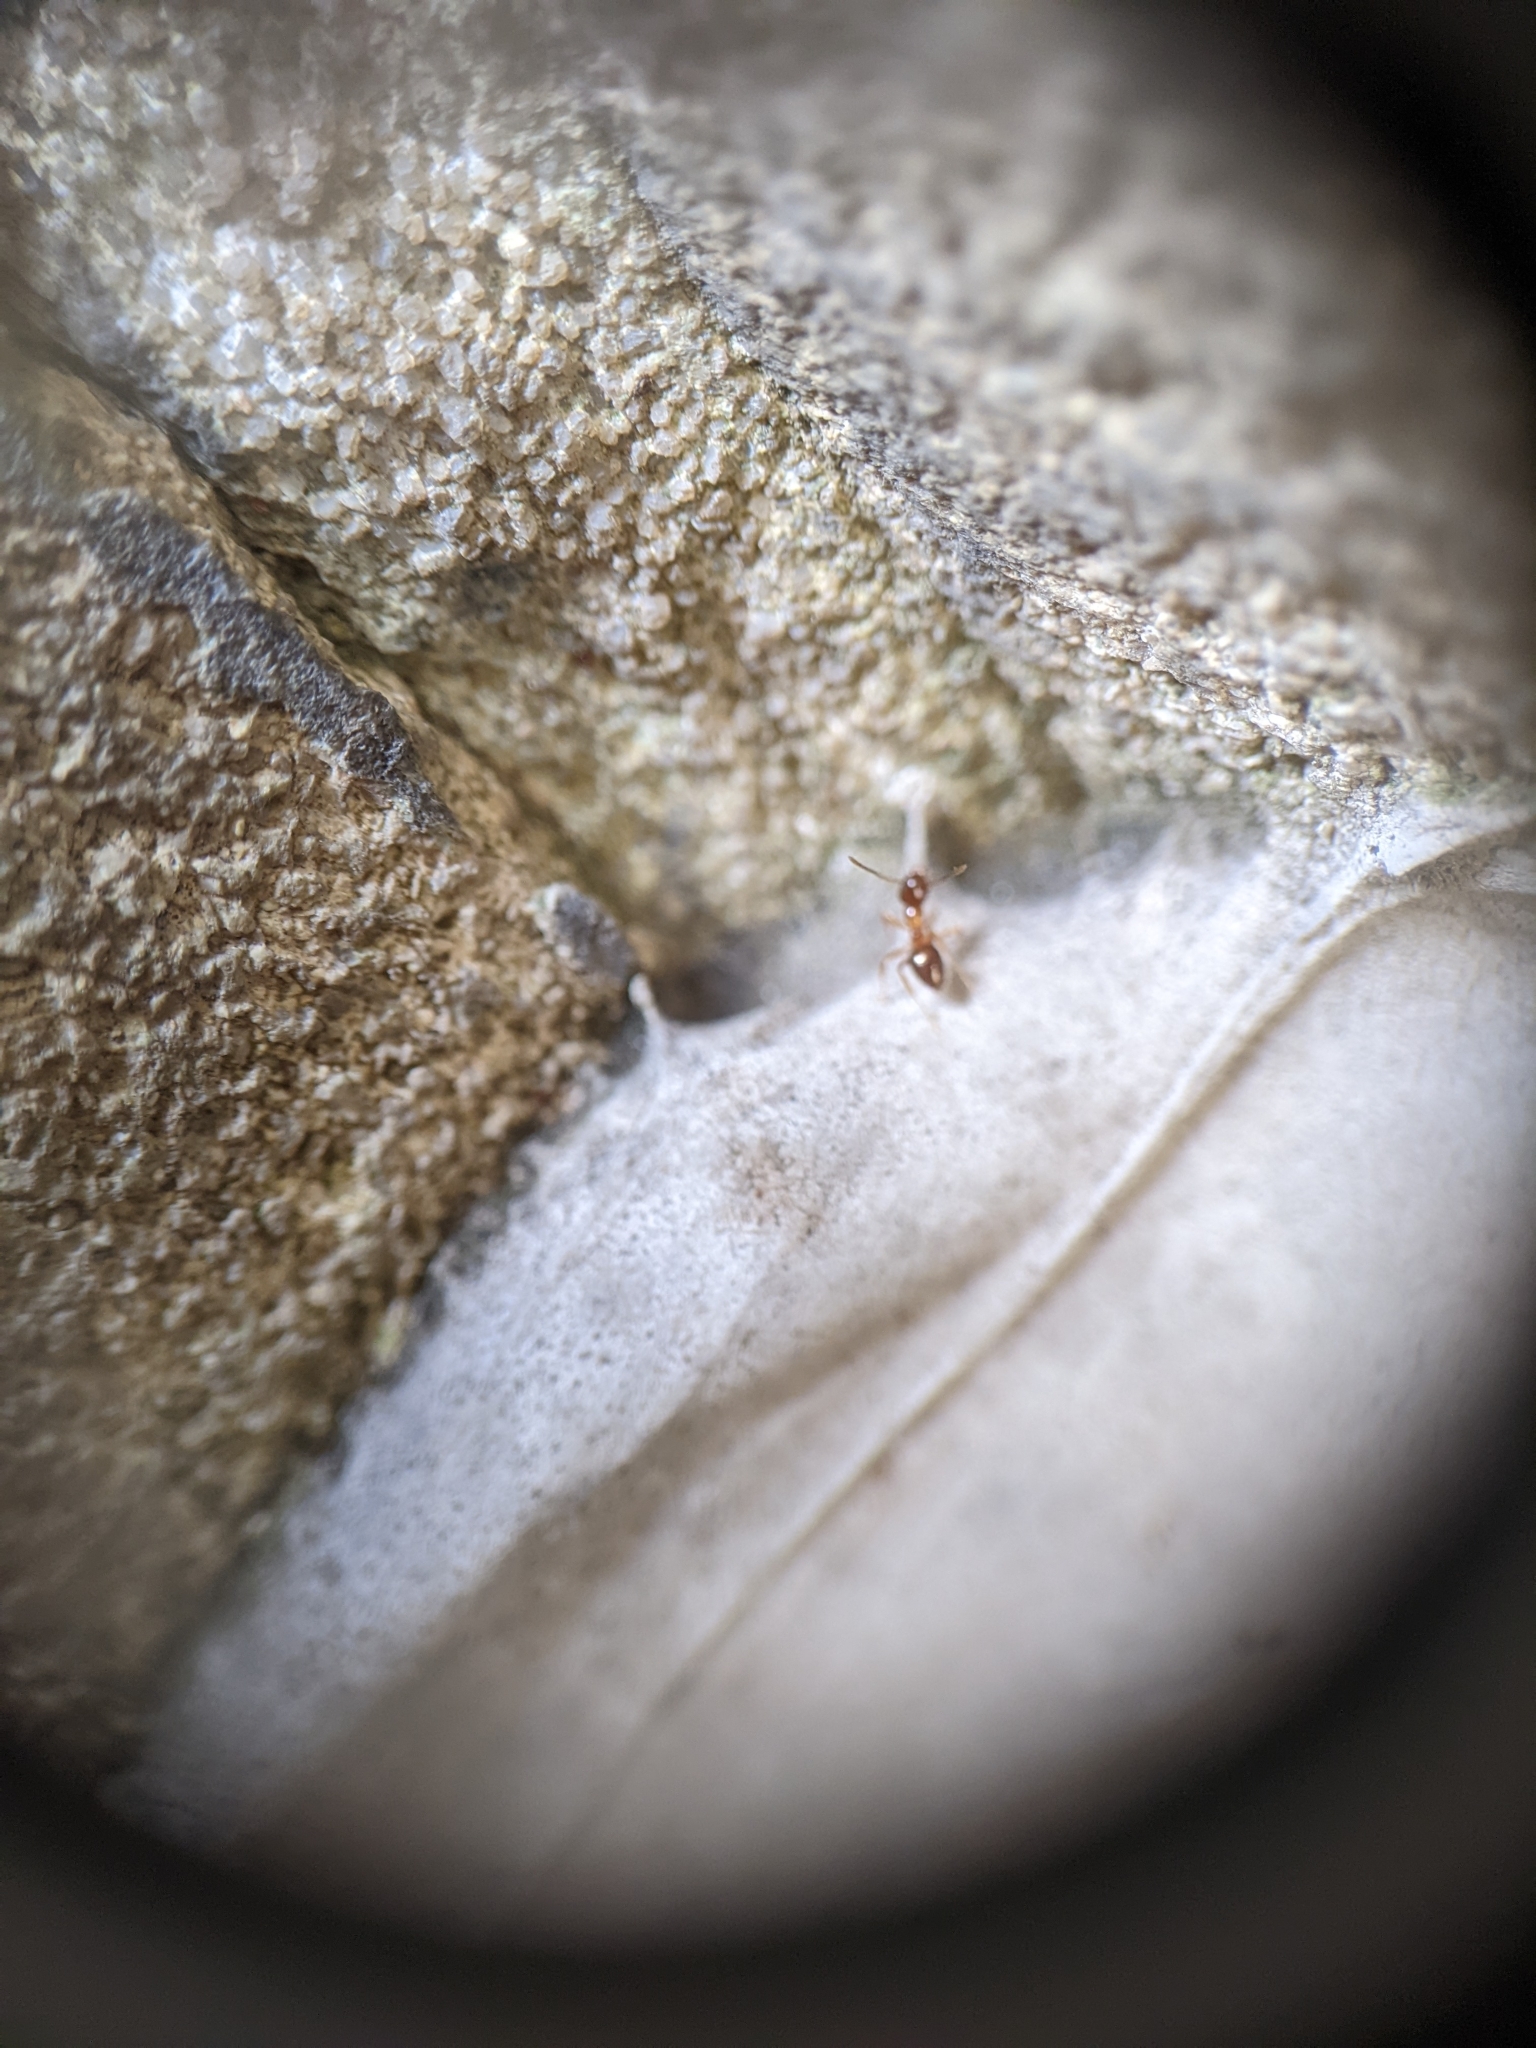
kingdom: Animalia
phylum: Arthropoda
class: Insecta
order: Hymenoptera
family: Formicidae
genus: Paratrechina
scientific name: Paratrechina flavipes
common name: Eastern asian formicine ant
